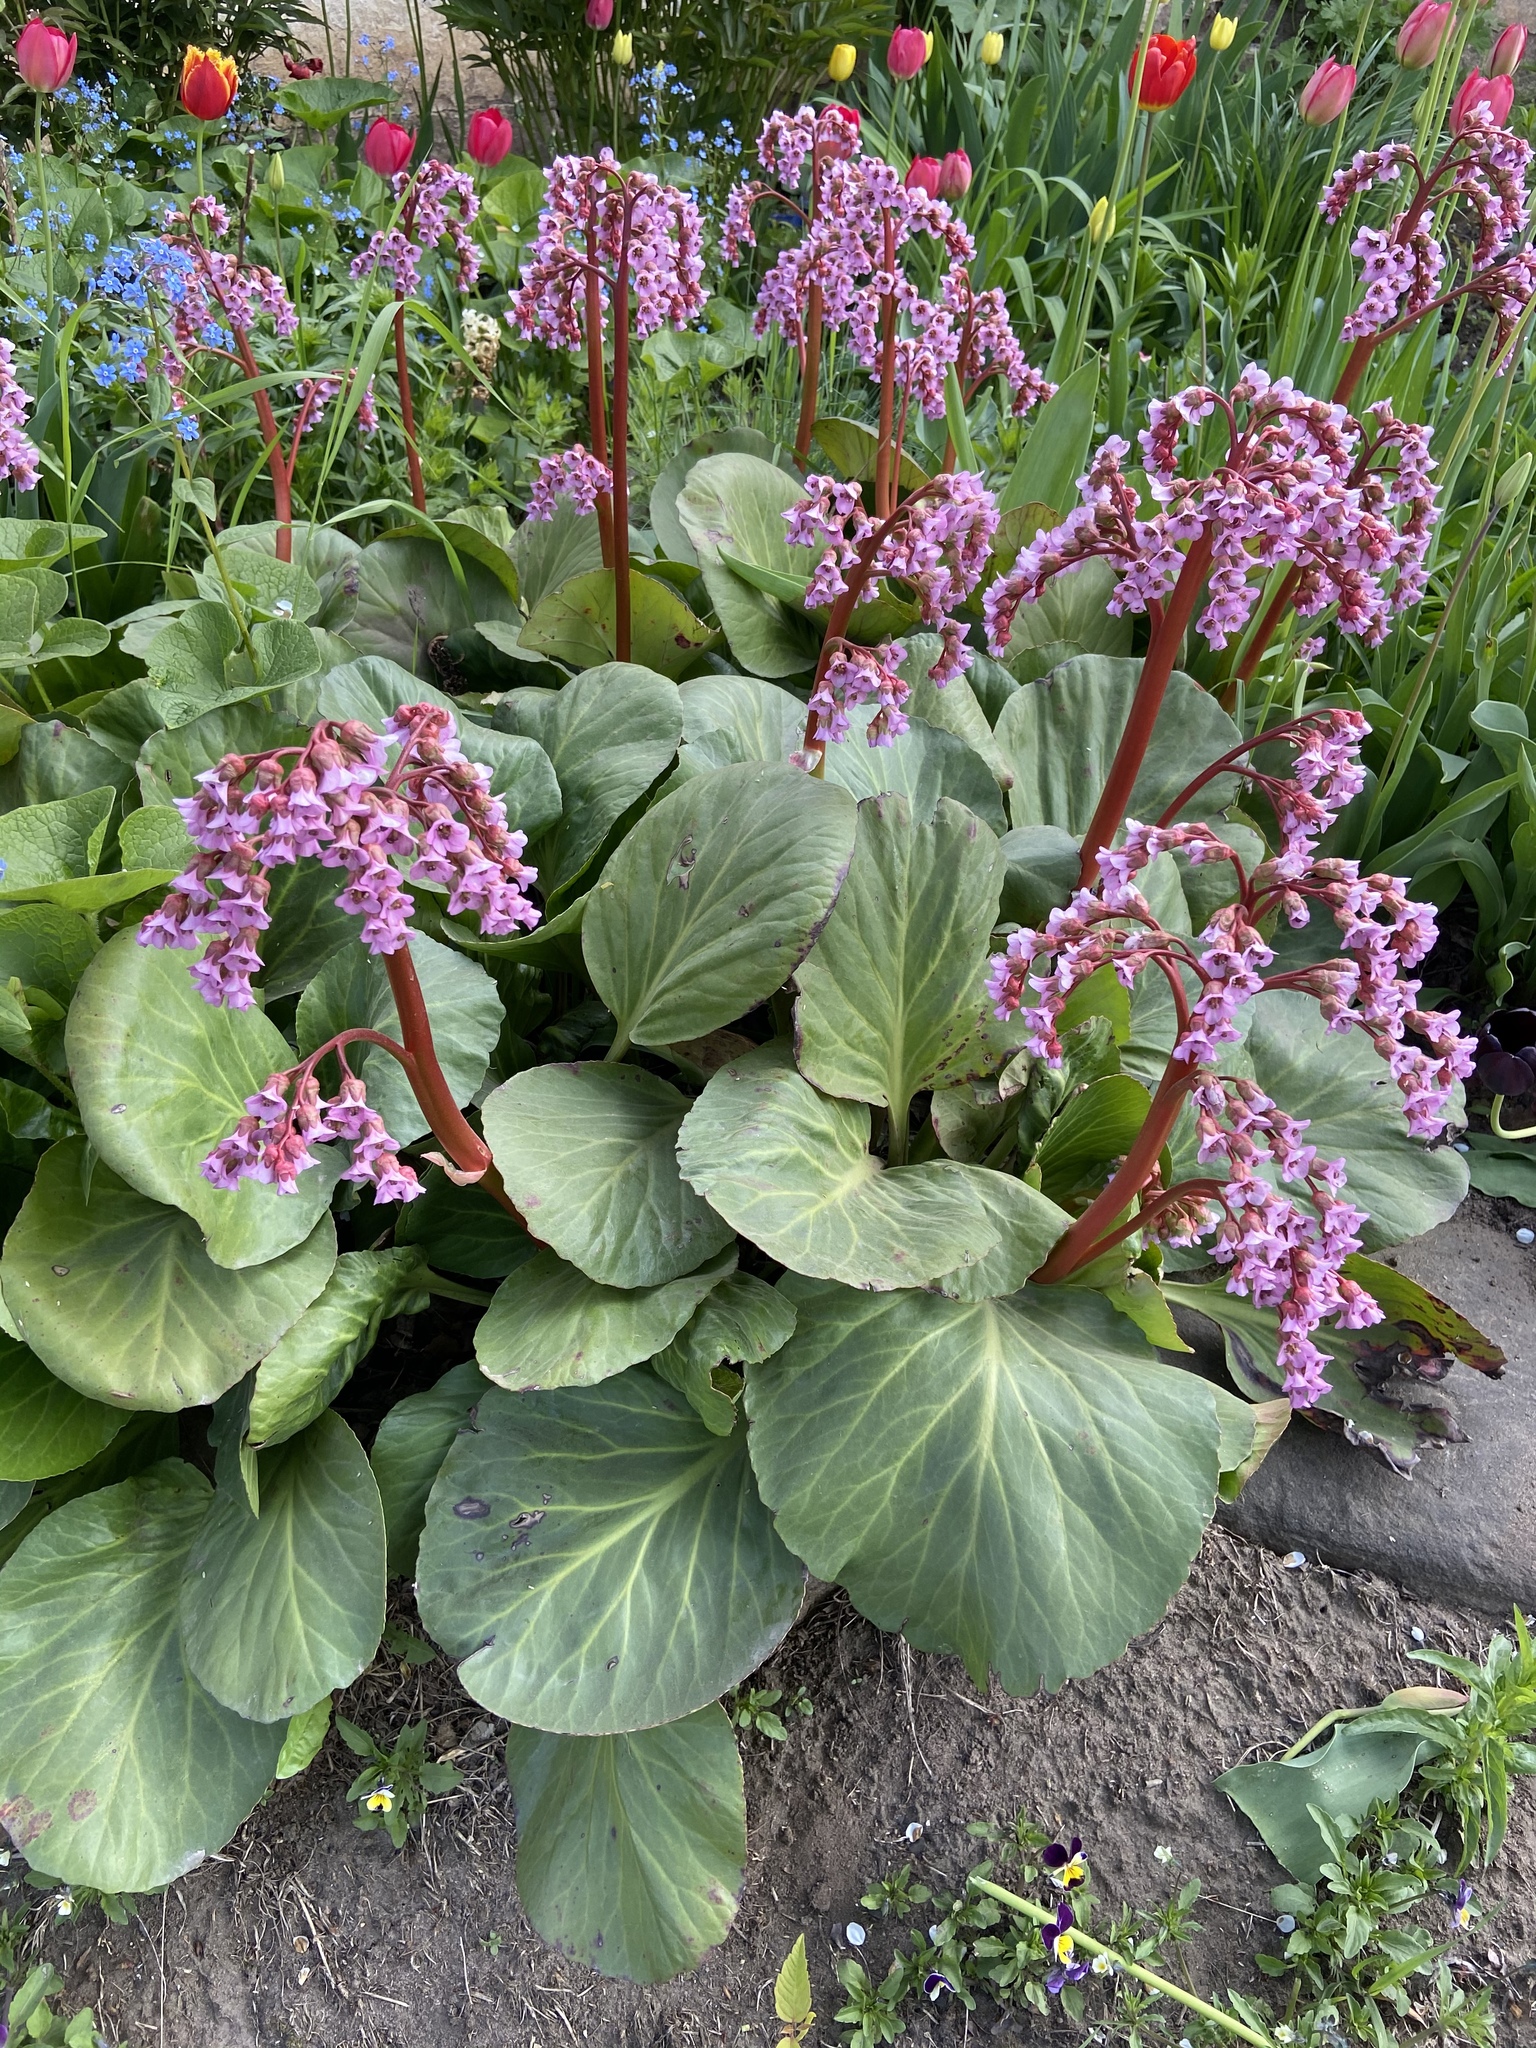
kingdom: Plantae
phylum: Tracheophyta
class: Magnoliopsida
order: Saxifragales
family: Saxifragaceae
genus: Bergenia
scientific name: Bergenia crassifolia
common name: Elephant-ears
